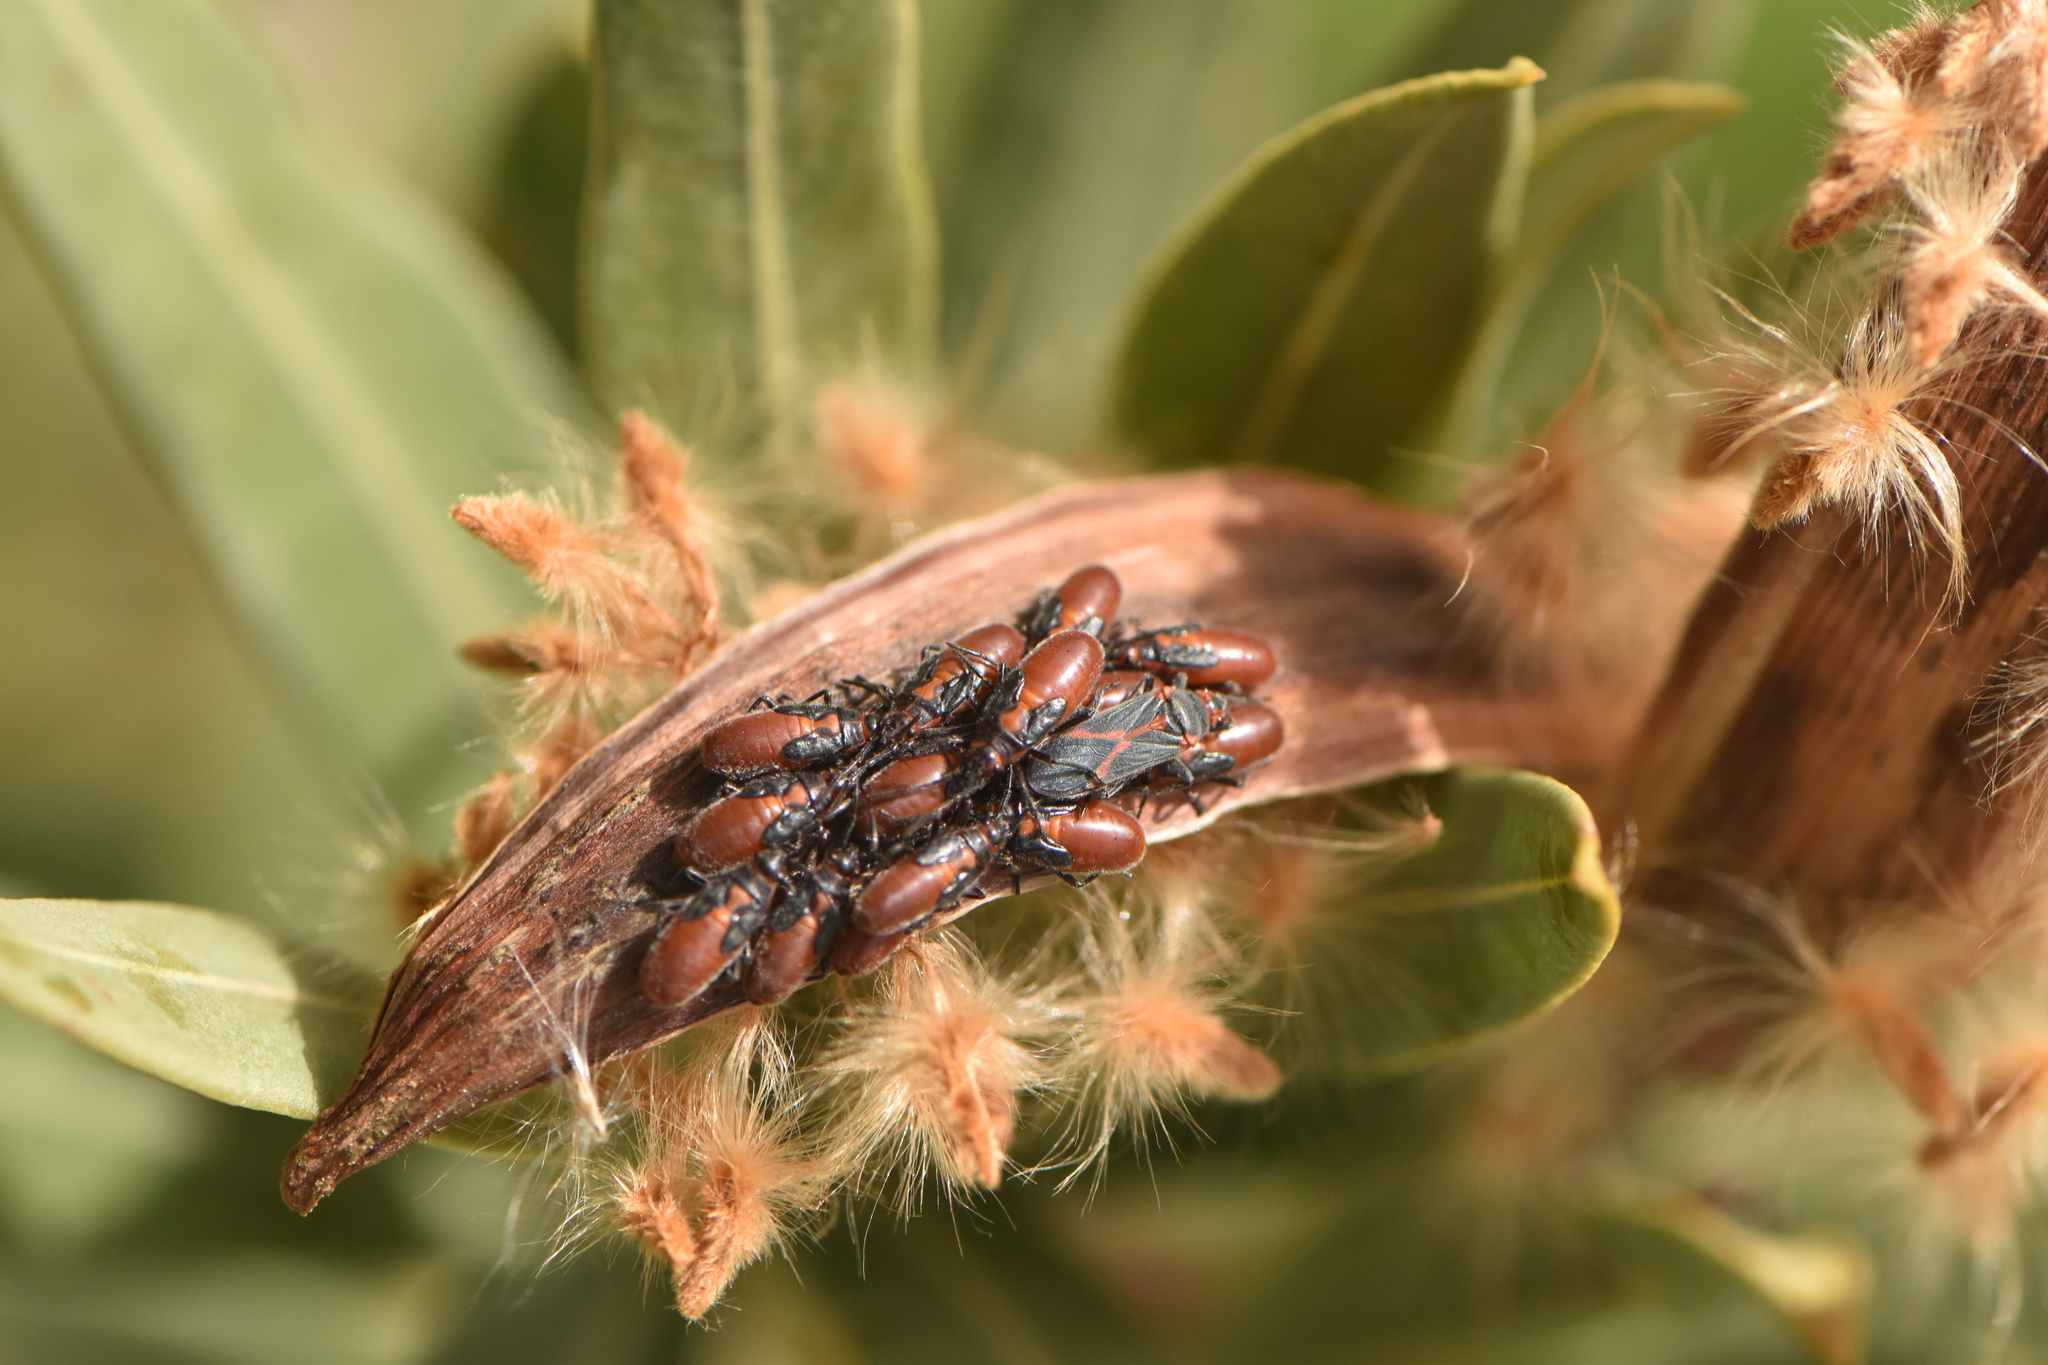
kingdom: Animalia
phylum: Arthropoda
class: Insecta
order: Hemiptera
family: Lygaeidae
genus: Caenocoris
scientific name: Caenocoris nerii
